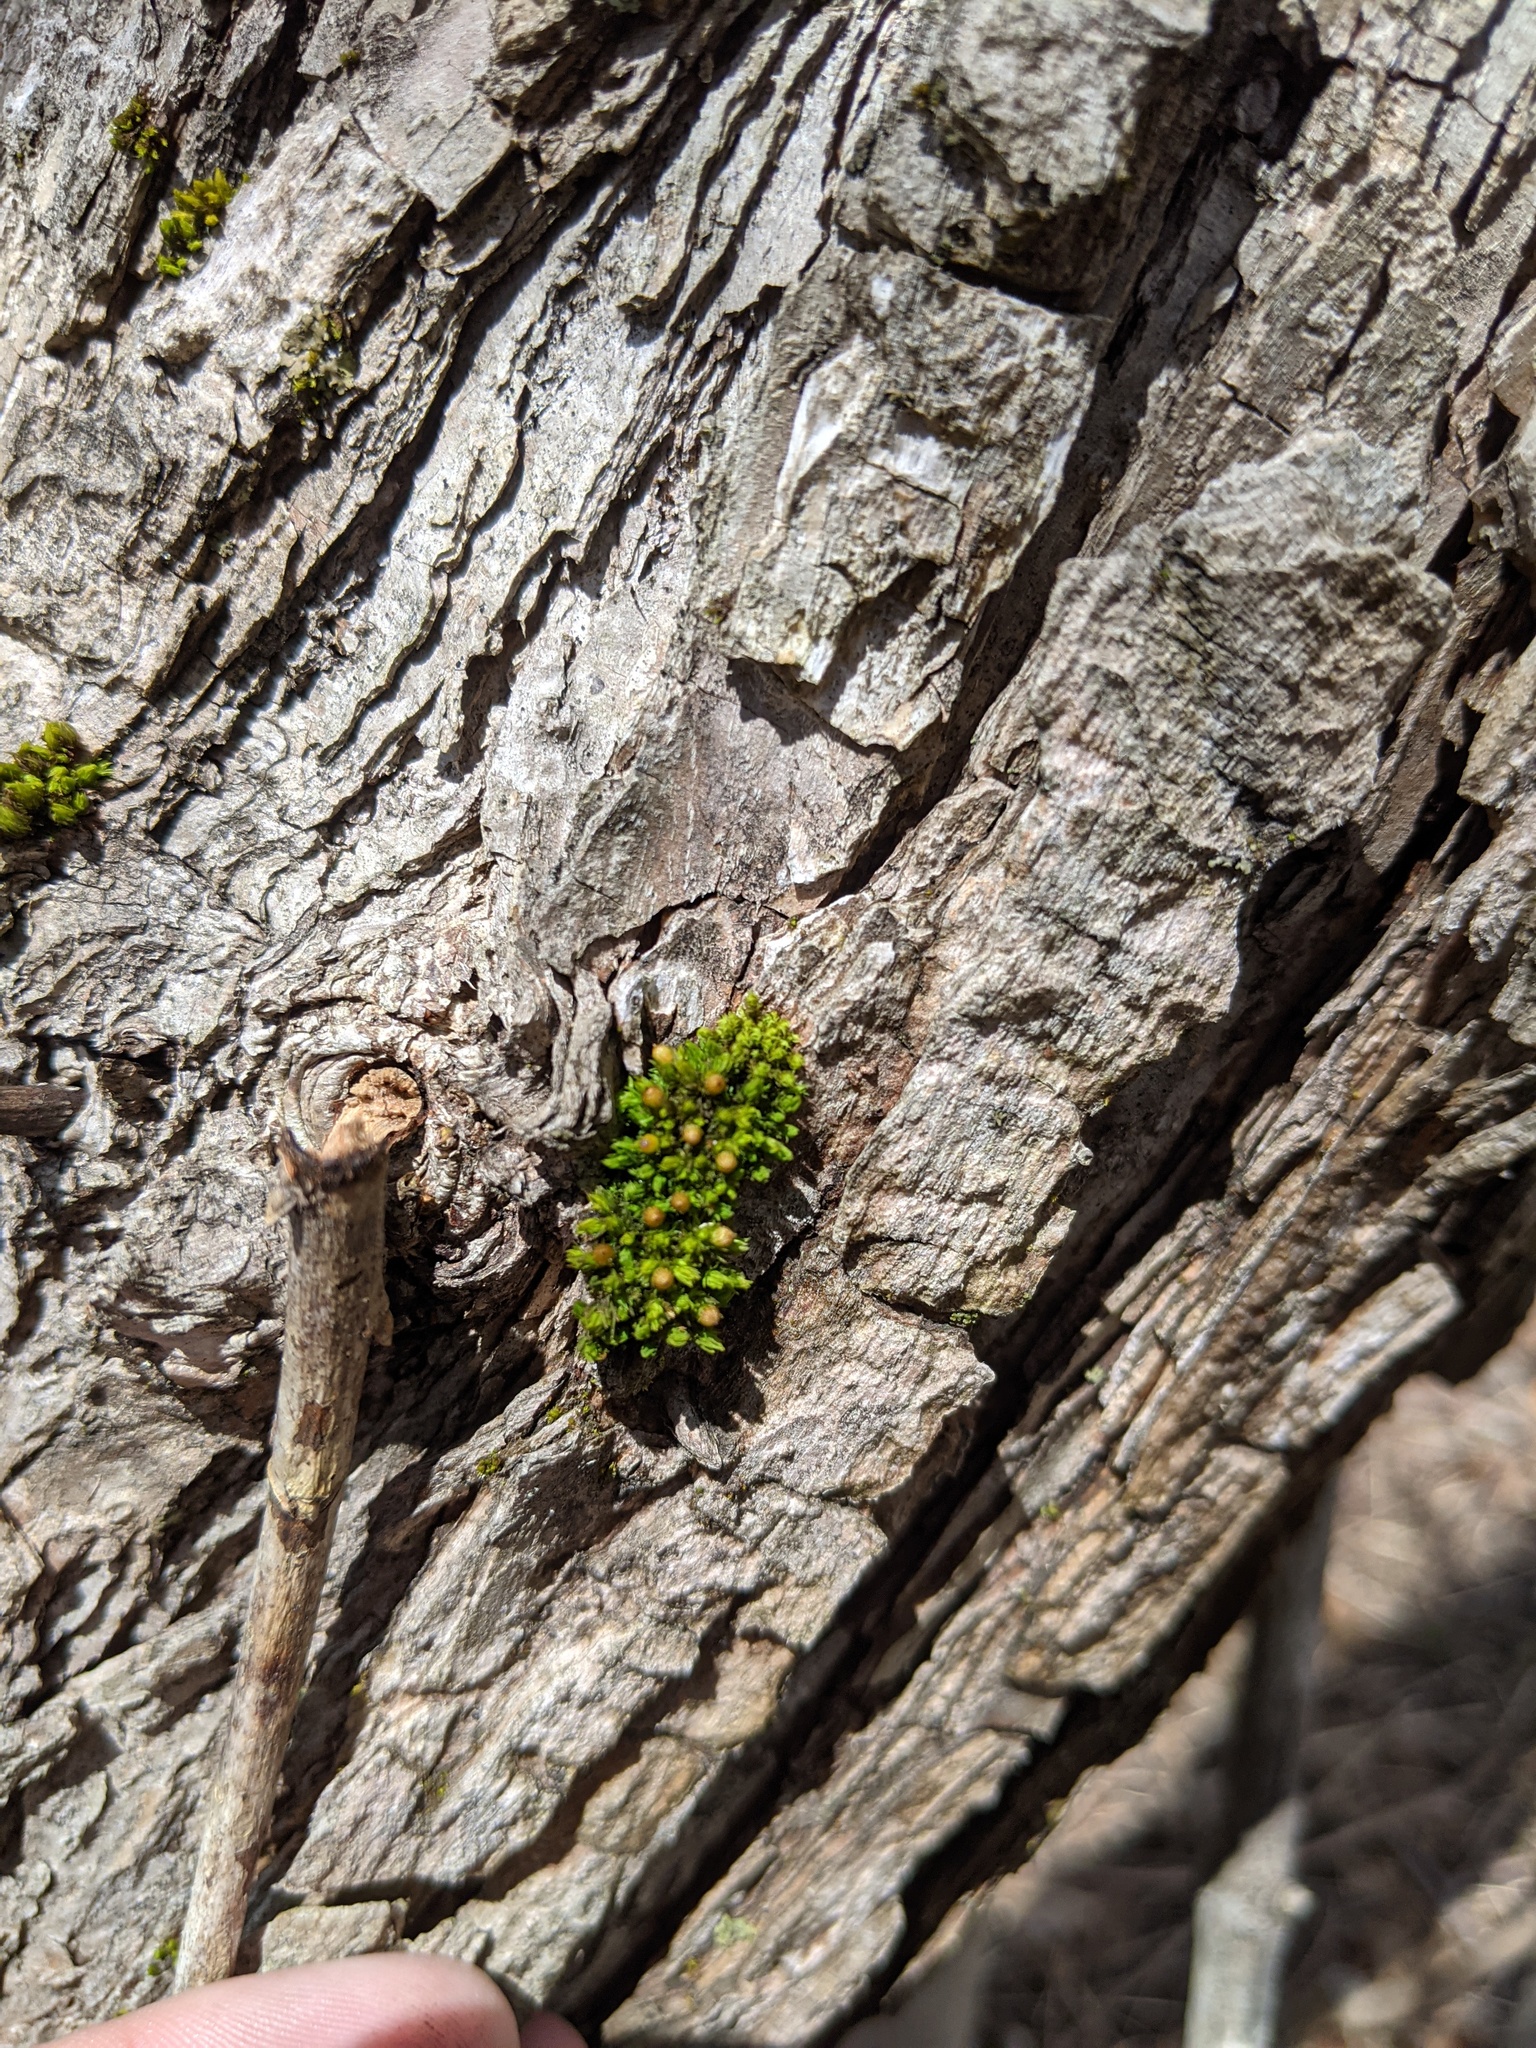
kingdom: Plantae
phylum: Bryophyta
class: Bryopsida
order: Orthotrichales
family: Orthotrichaceae
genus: Ulota
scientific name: Ulota crispa
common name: Crisped pincushion moss
